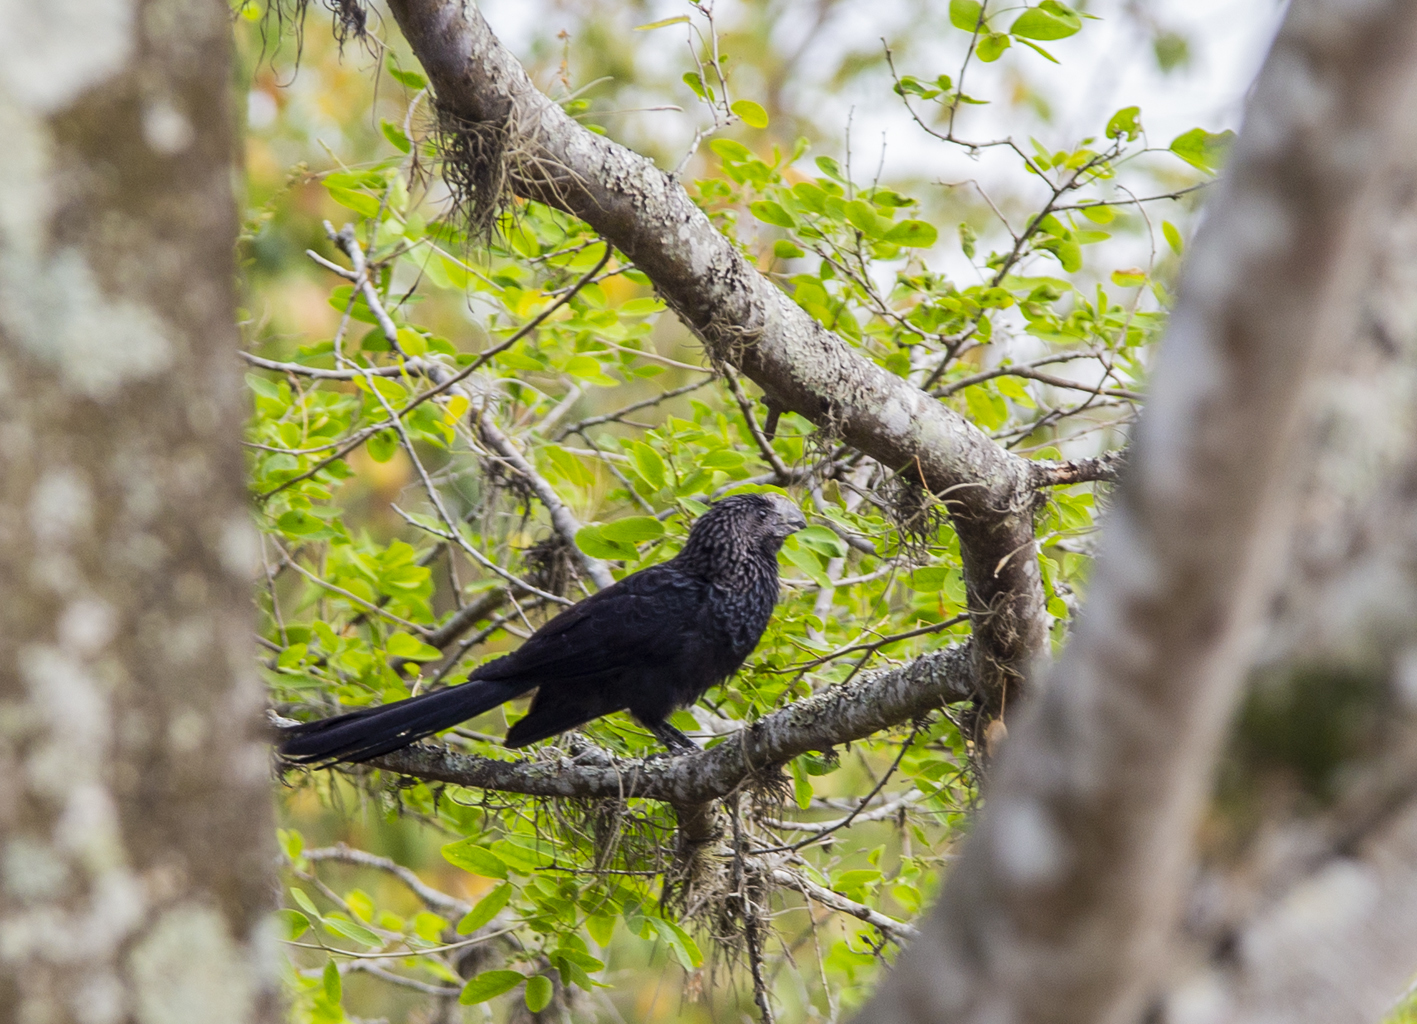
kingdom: Animalia
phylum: Chordata
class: Aves
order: Cuculiformes
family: Cuculidae
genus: Crotophaga
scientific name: Crotophaga ani
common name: Smooth-billed ani
